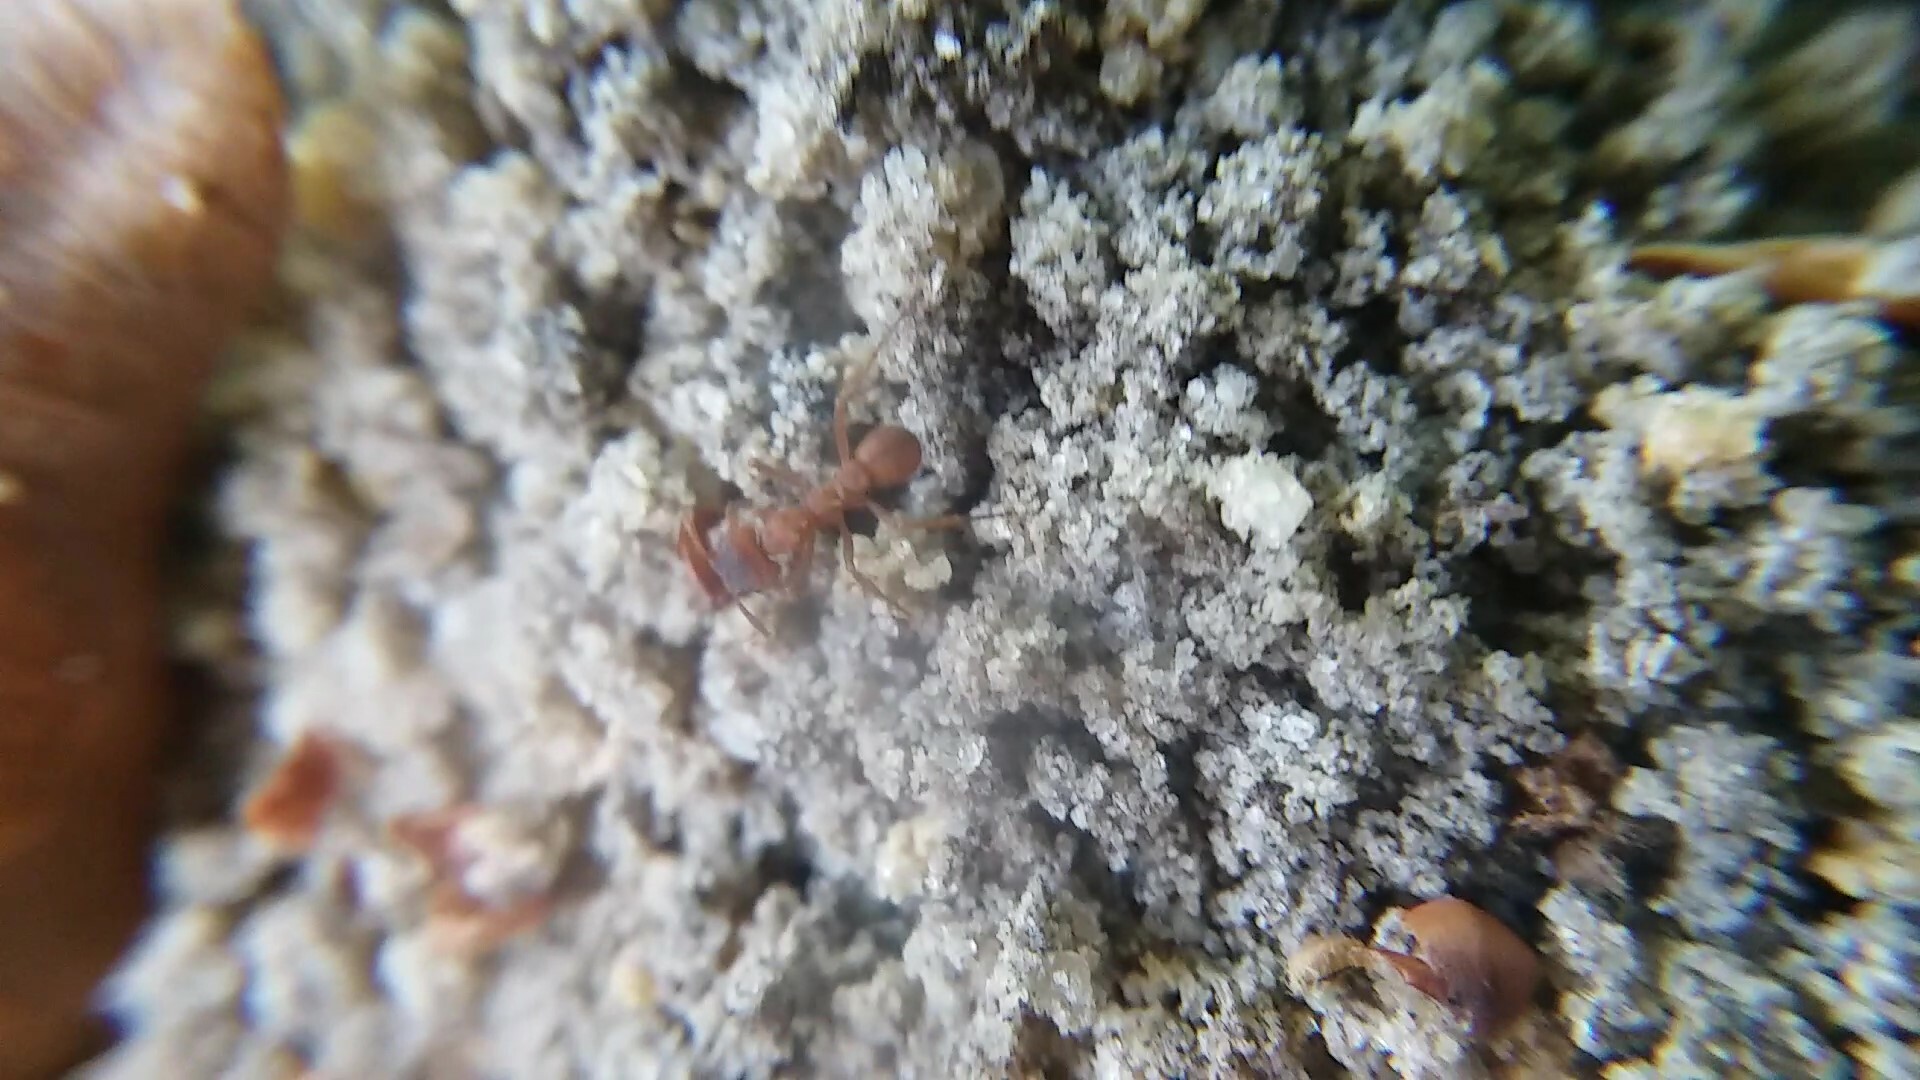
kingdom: Animalia
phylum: Arthropoda
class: Insecta
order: Hymenoptera
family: Formicidae
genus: Trachymyrmex
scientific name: Trachymyrmex septentrionalis
